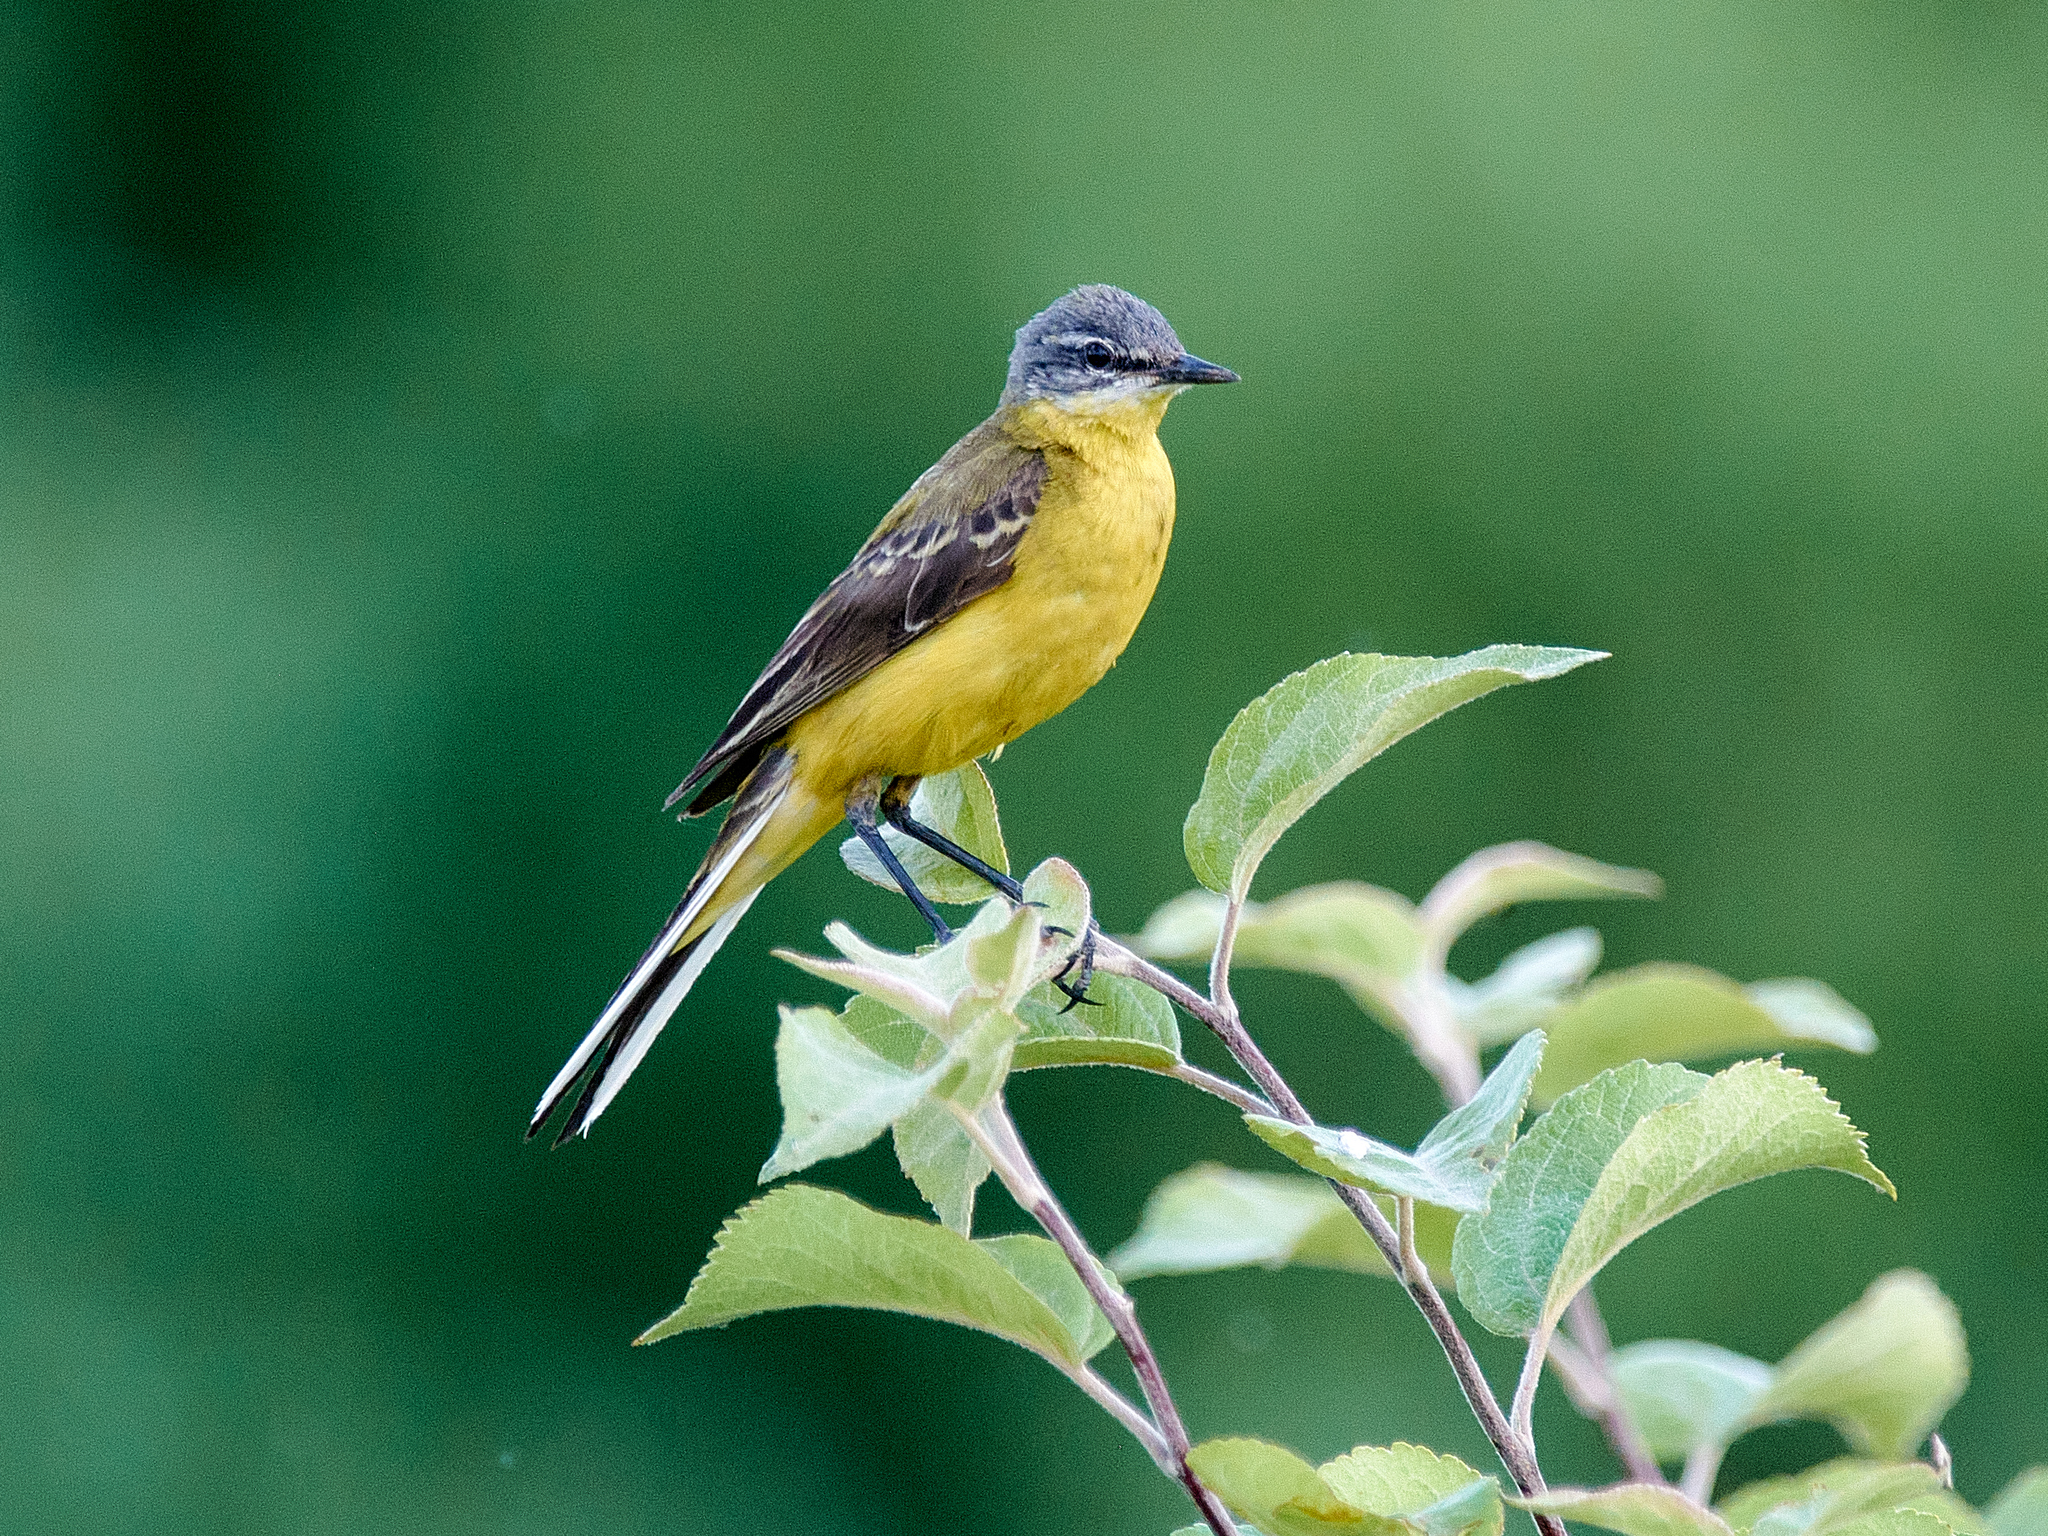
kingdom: Animalia
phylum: Chordata
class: Aves
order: Passeriformes
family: Motacillidae
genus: Motacilla
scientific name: Motacilla flava
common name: Western yellow wagtail
